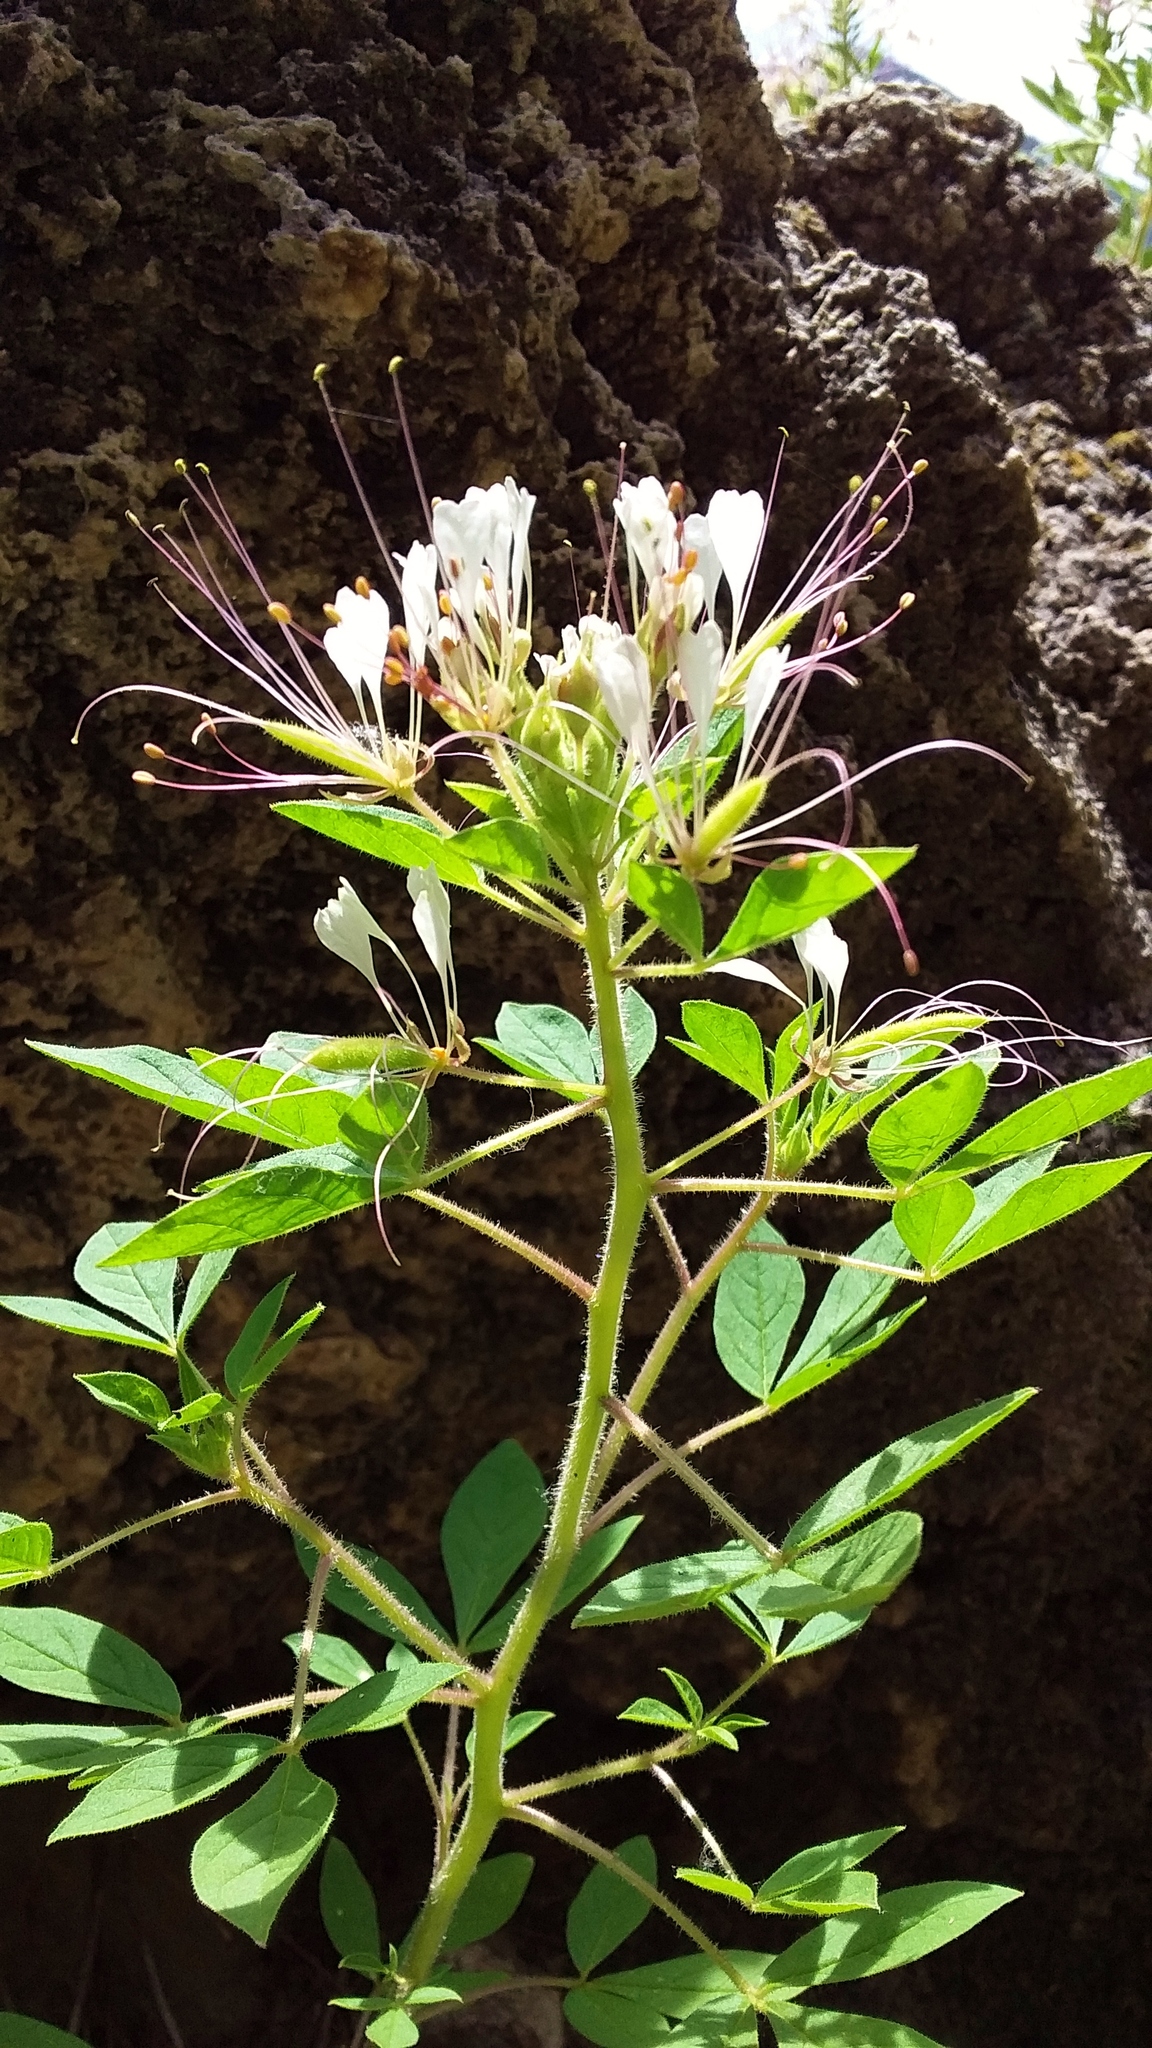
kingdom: Plantae
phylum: Tracheophyta
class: Magnoliopsida
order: Brassicales
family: Cleomaceae
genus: Polanisia
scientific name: Polanisia dodecandra
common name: Clammyweed
